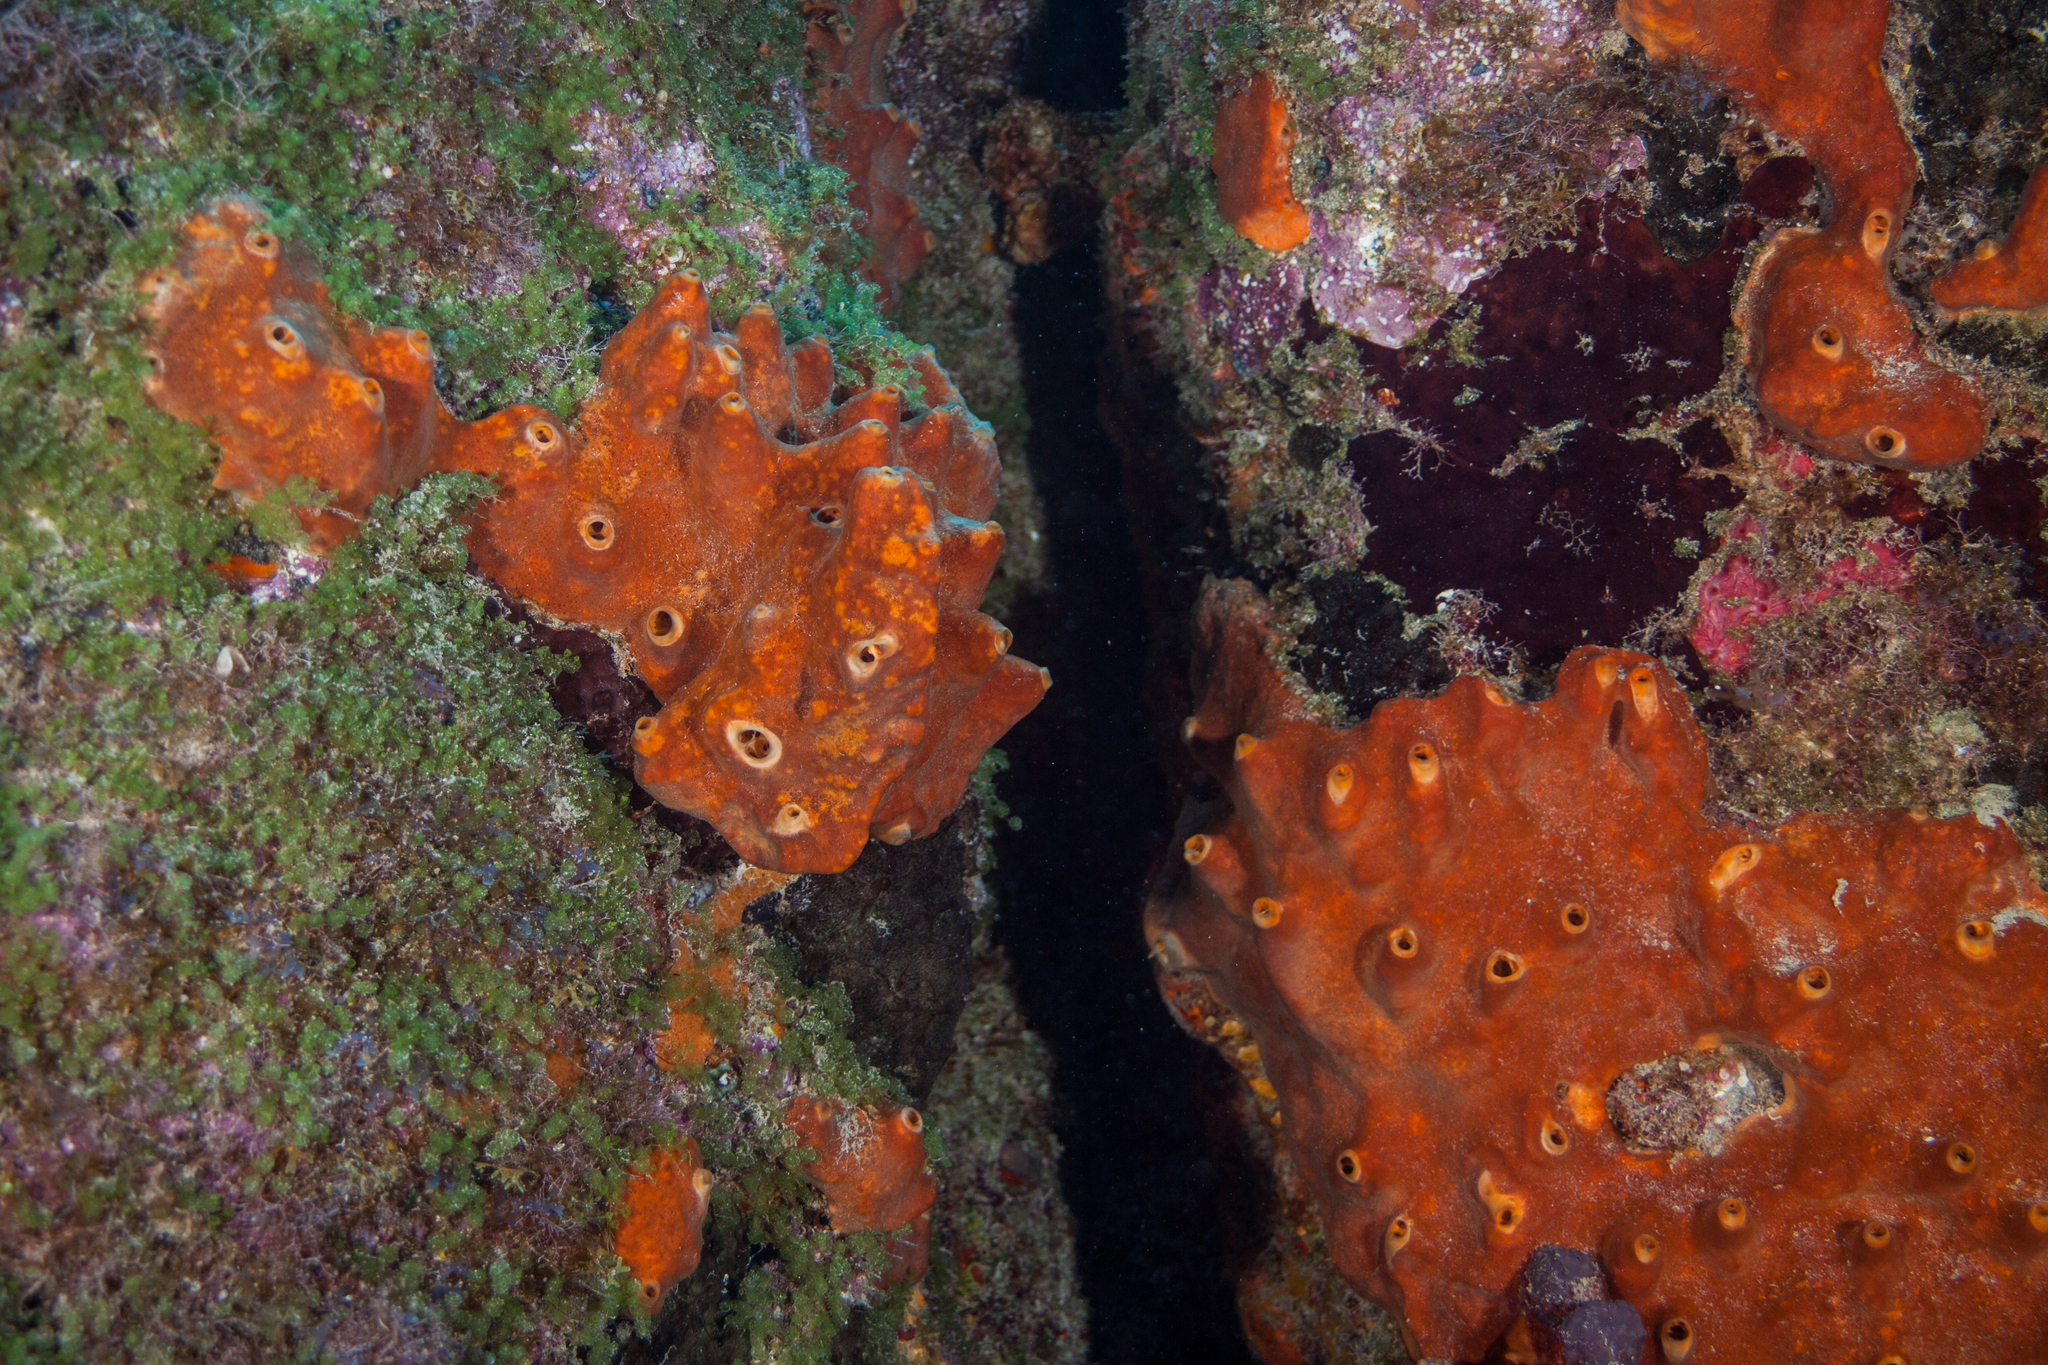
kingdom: Animalia
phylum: Porifera
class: Demospongiae
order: Axinellida
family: Raspailiidae
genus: Ectyoplasia
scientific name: Ectyoplasia ferox
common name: Brown encrusting octopus sponge
